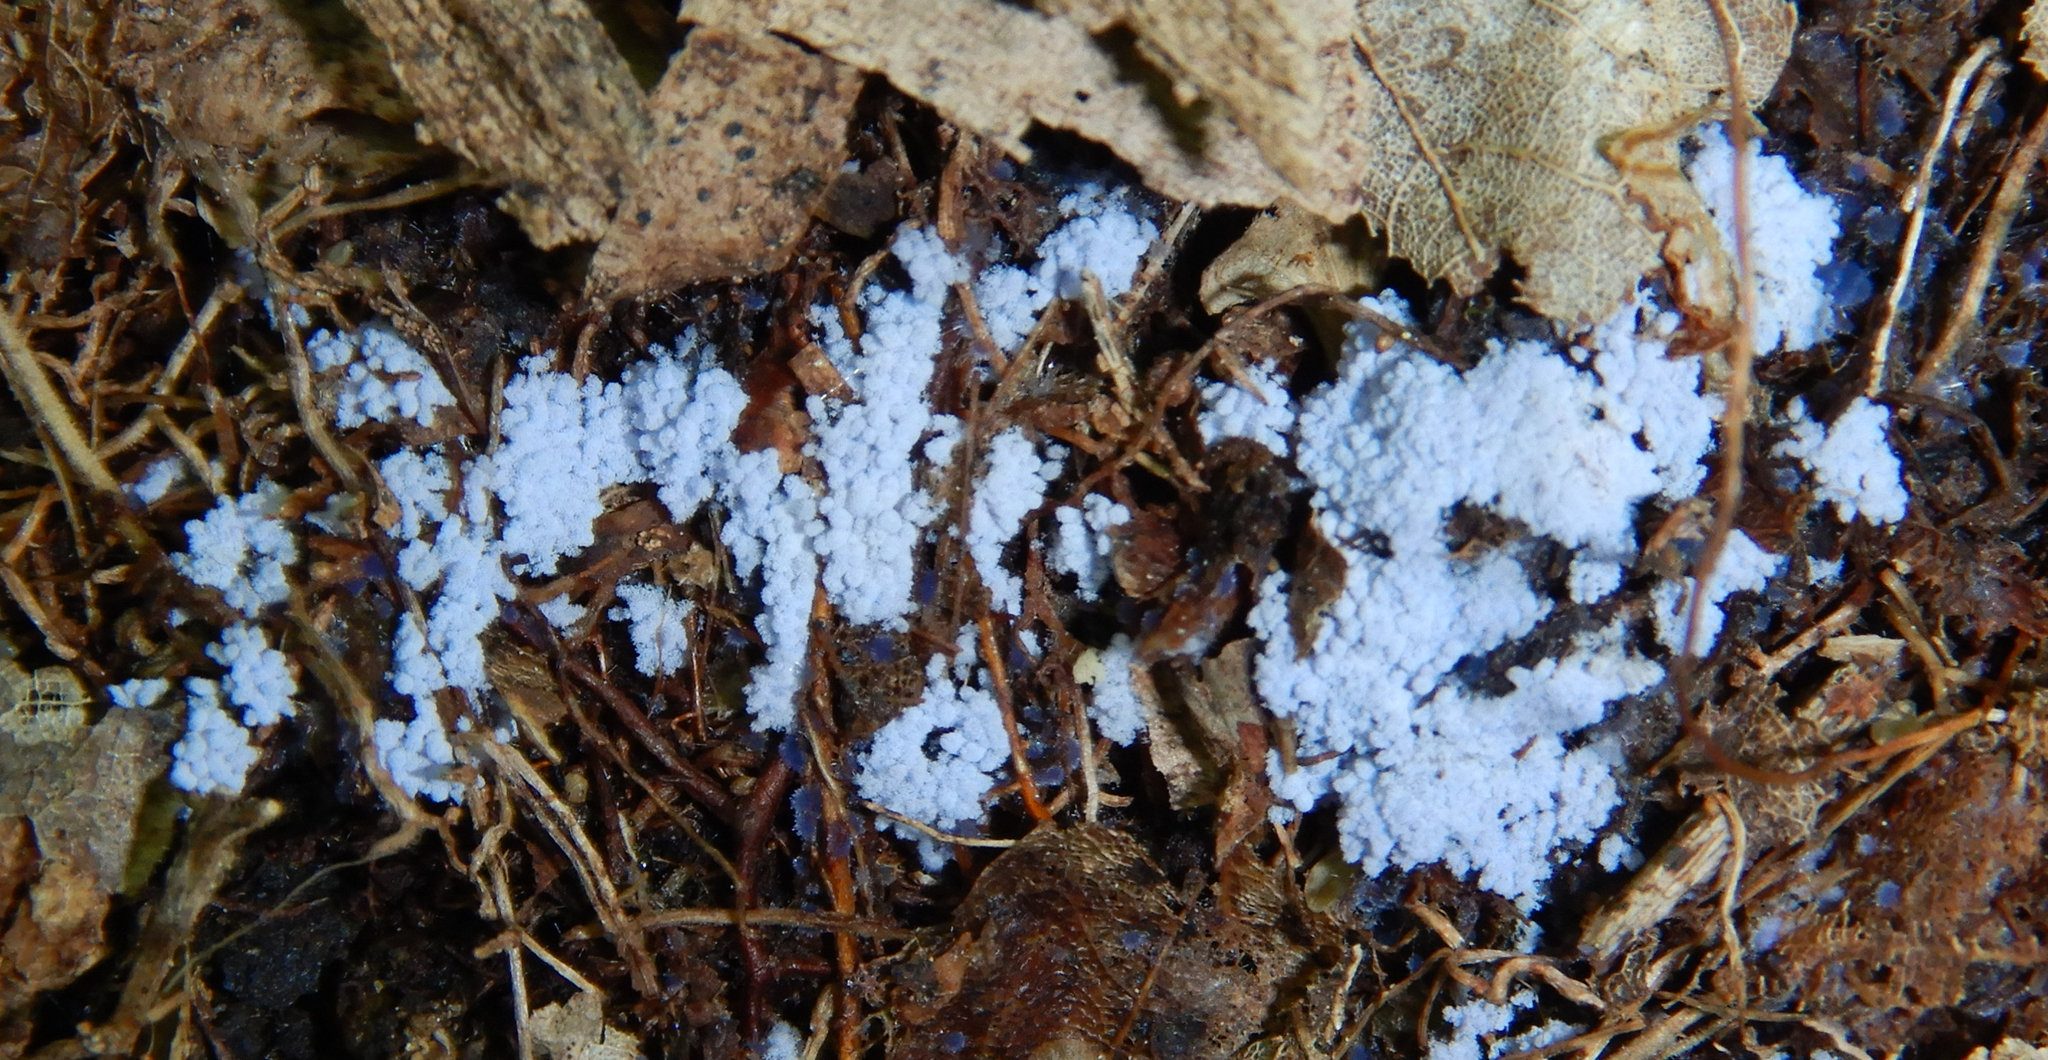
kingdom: Fungi
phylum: Ascomycota
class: Pezizomycetes
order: Pezizales
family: Pezizaceae
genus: Chromelosporiopsis
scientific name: Chromelosporiopsis coerulescens
